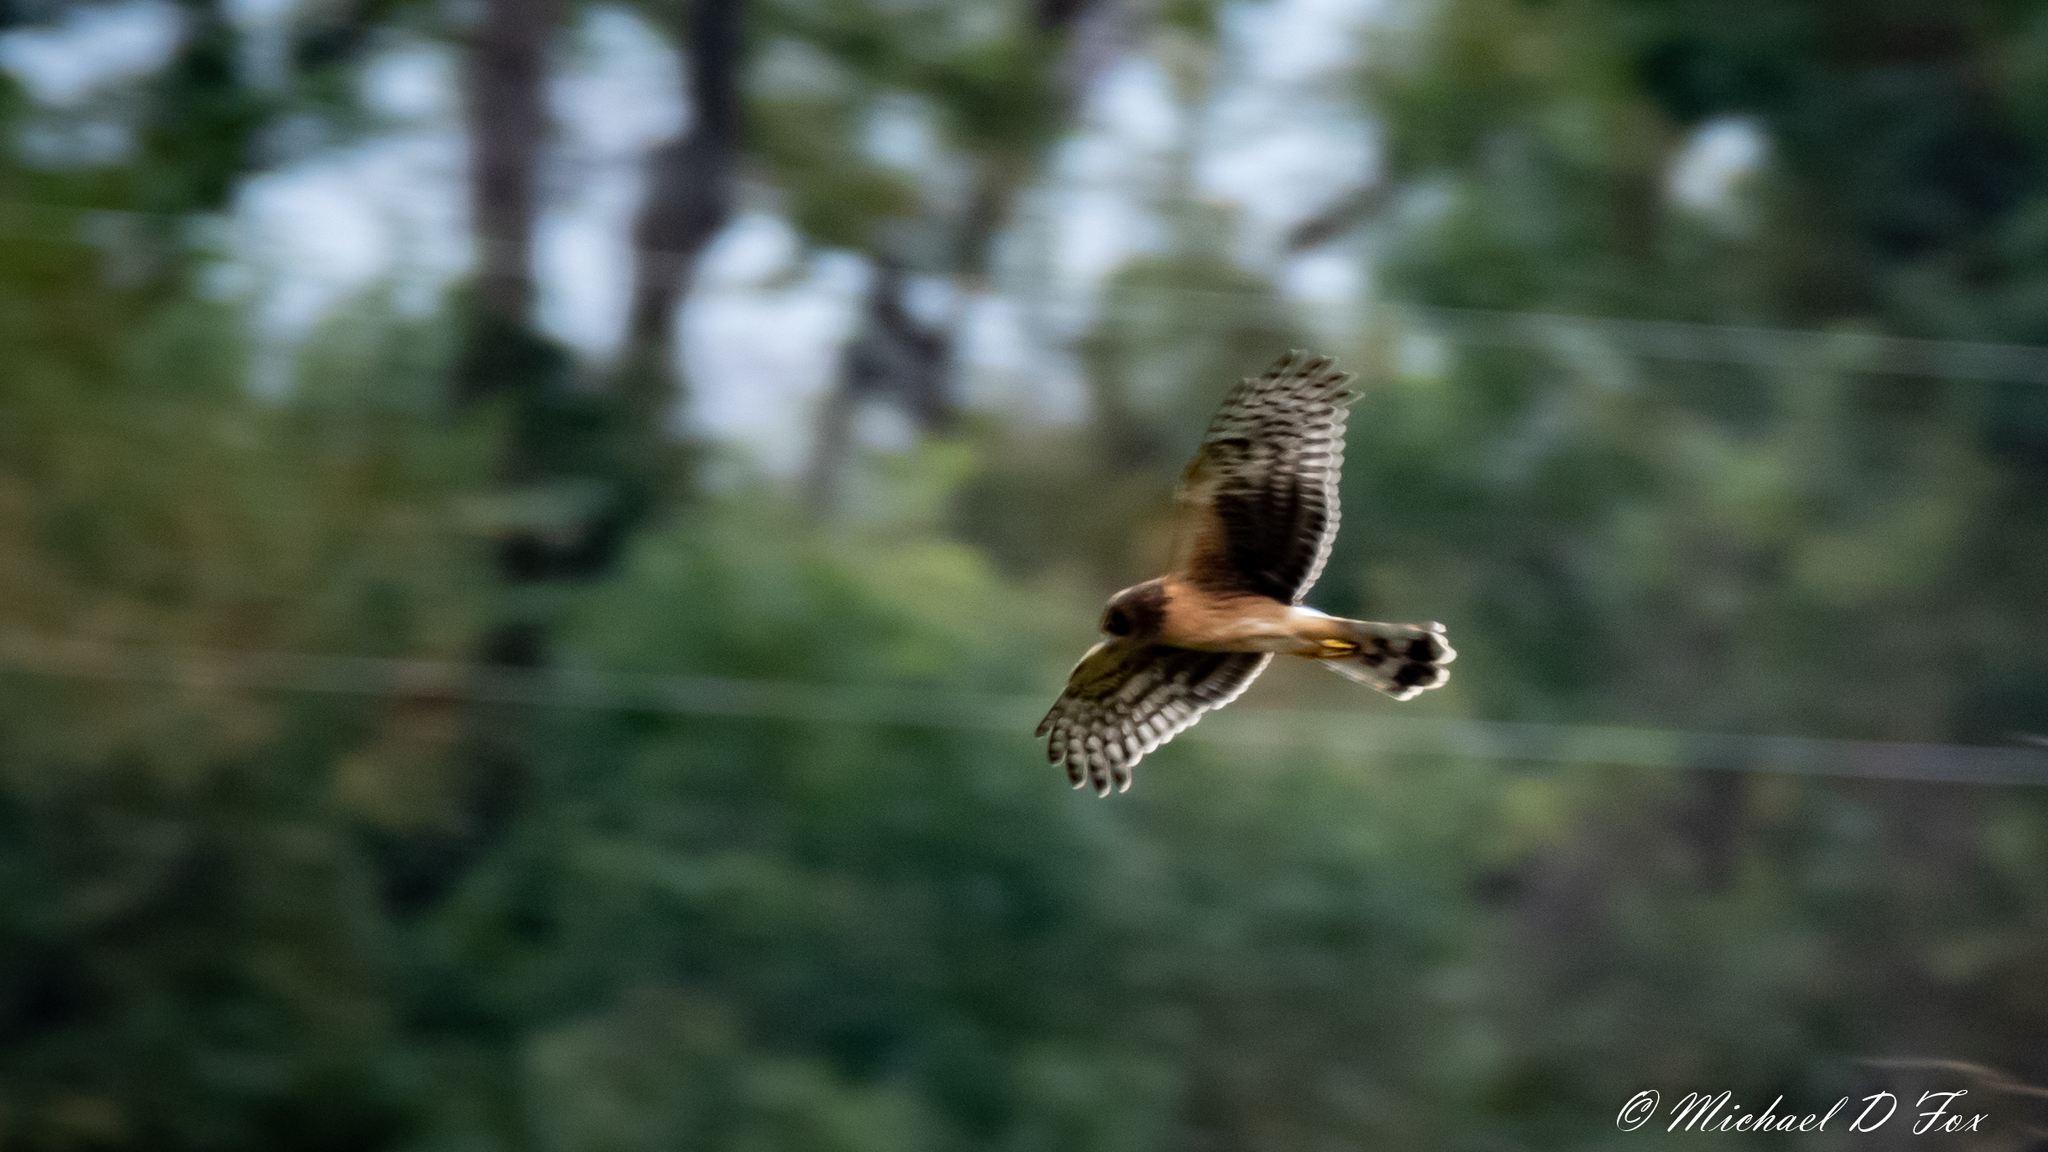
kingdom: Animalia
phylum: Chordata
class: Aves
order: Accipitriformes
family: Accipitridae
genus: Circus
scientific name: Circus cyaneus
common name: Hen harrier
